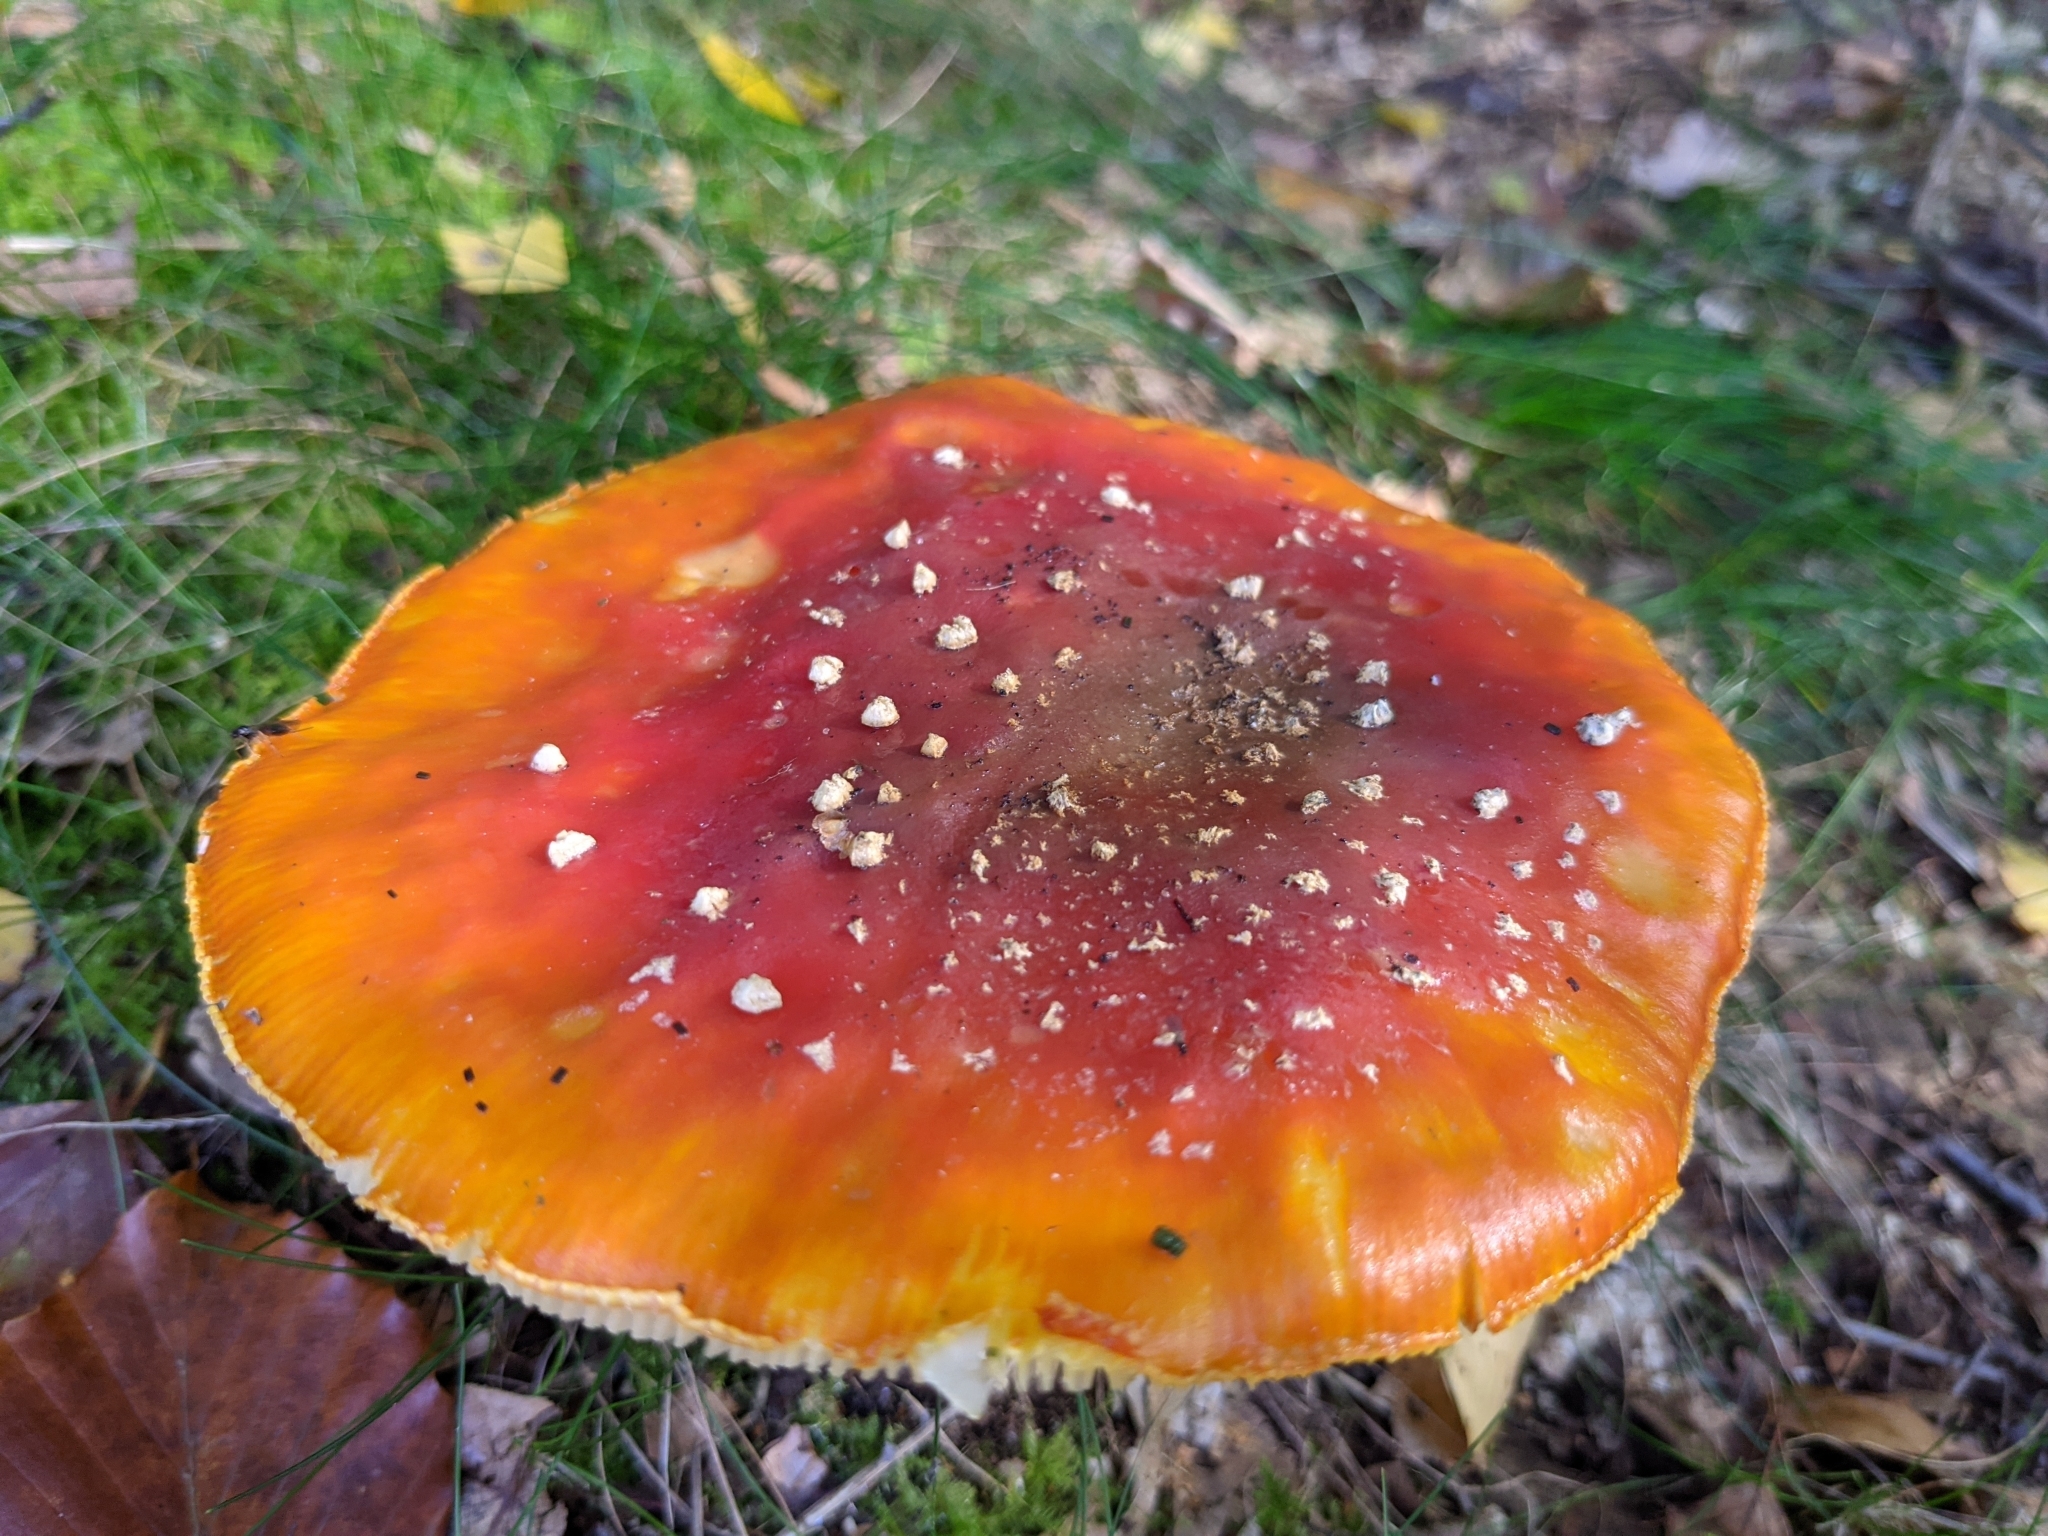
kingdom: Fungi
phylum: Basidiomycota
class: Agaricomycetes
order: Agaricales
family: Amanitaceae
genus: Amanita
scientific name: Amanita muscaria
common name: Fly agaric
